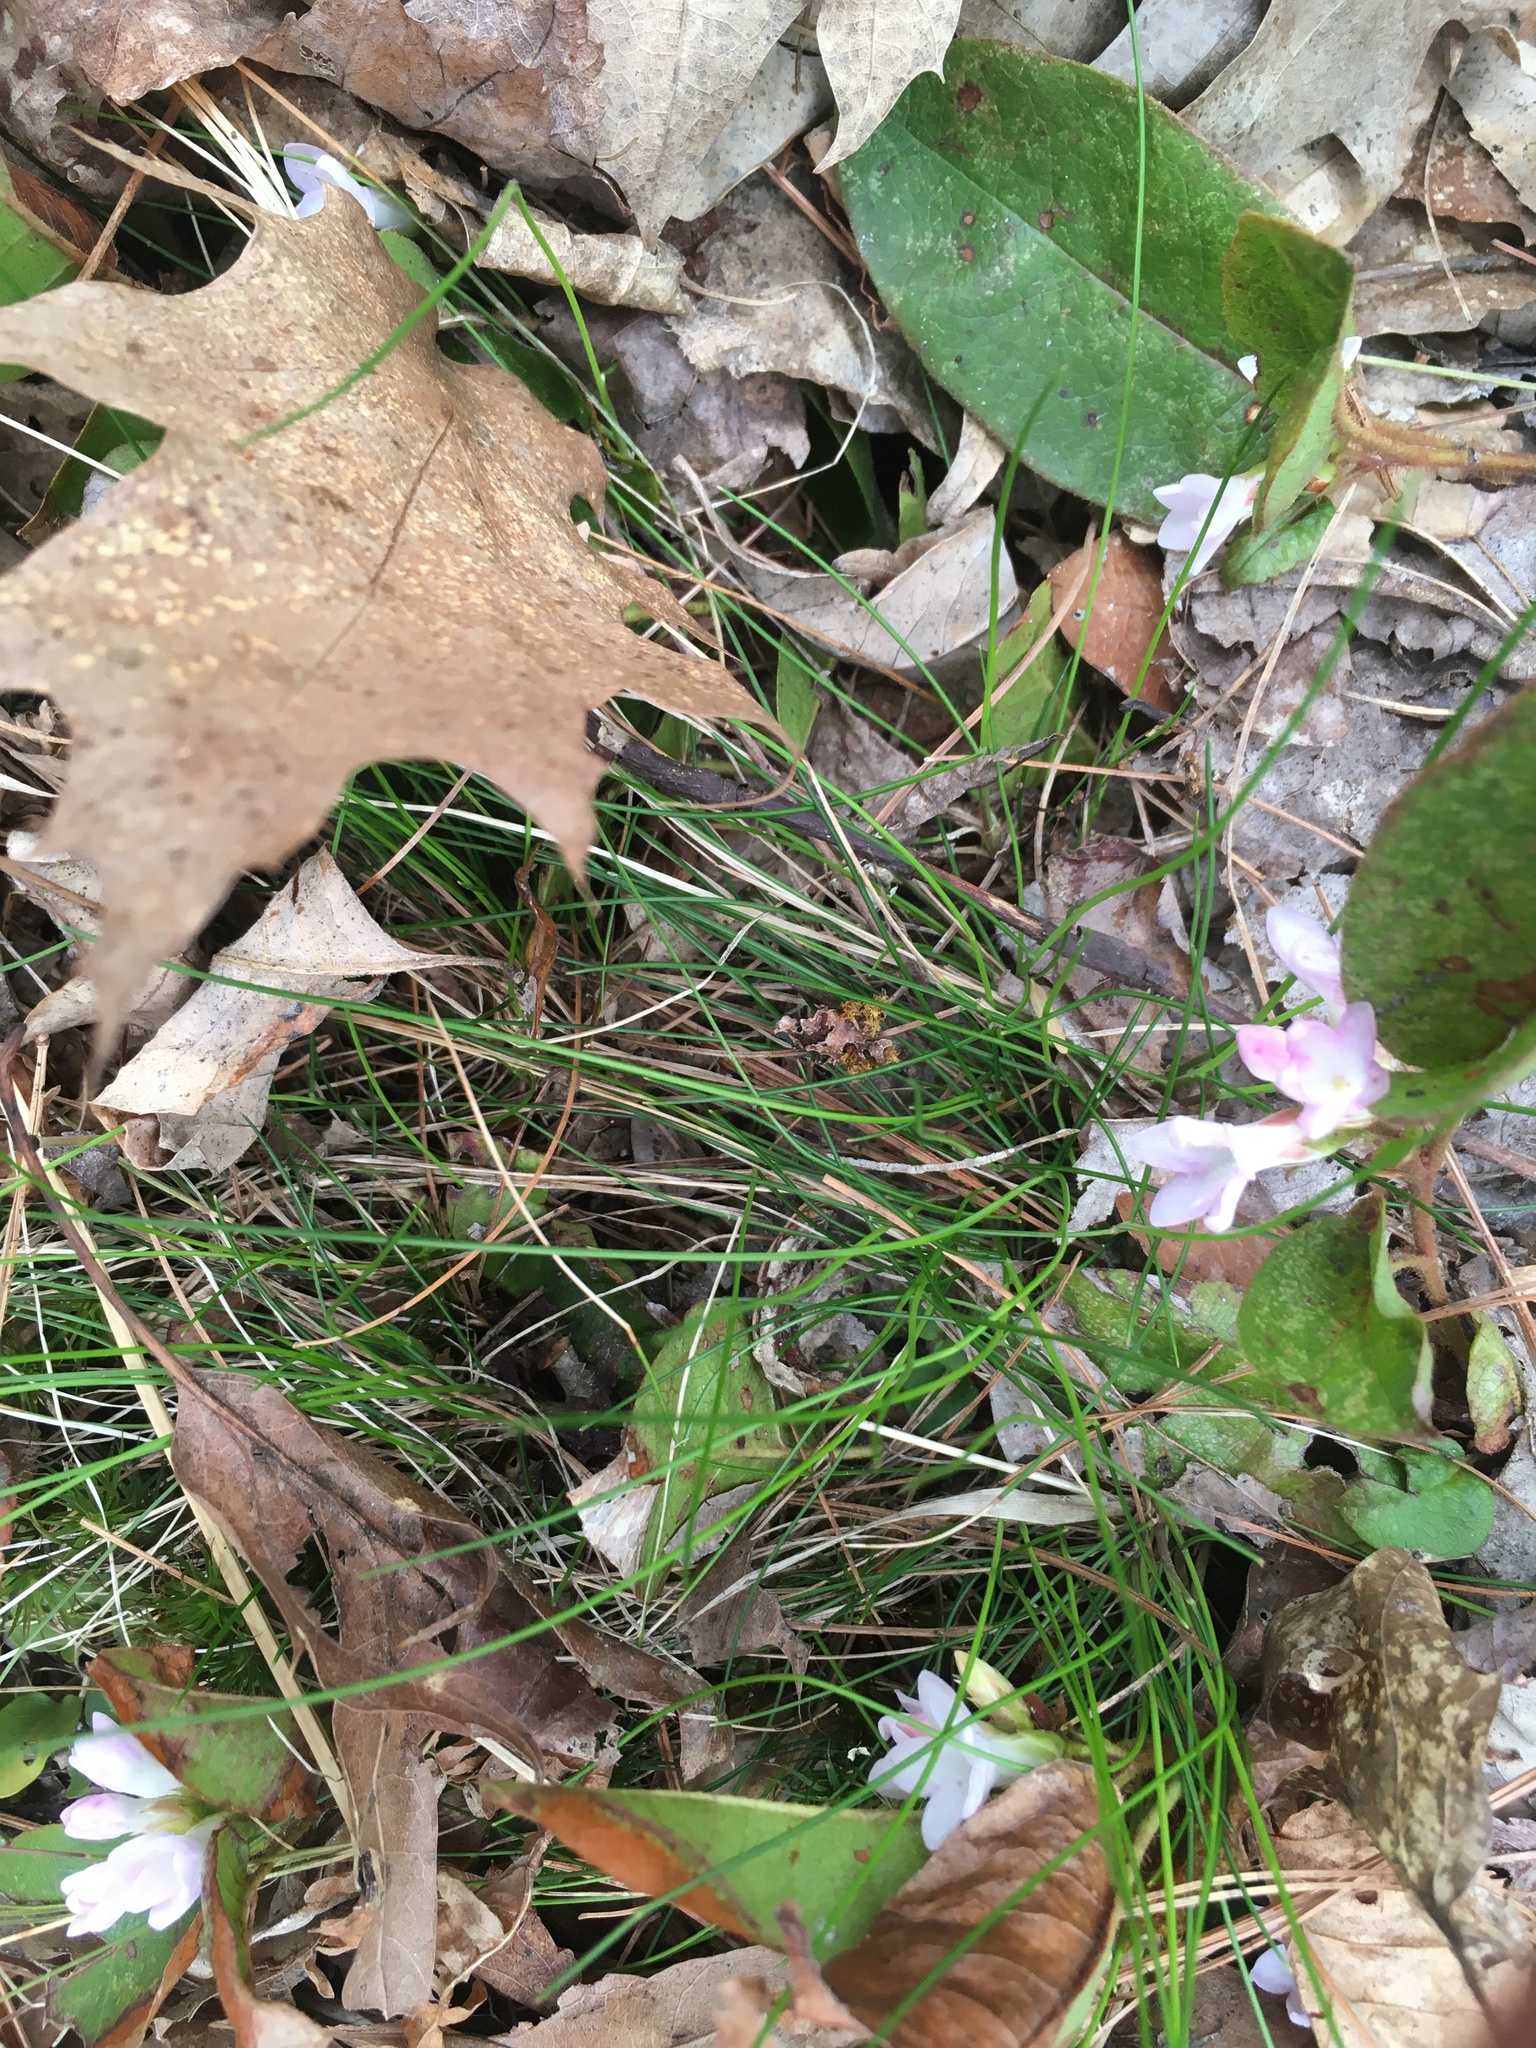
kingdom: Plantae
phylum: Tracheophyta
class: Magnoliopsida
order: Ericales
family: Ericaceae
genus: Epigaea
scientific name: Epigaea repens
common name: Gravelroot
